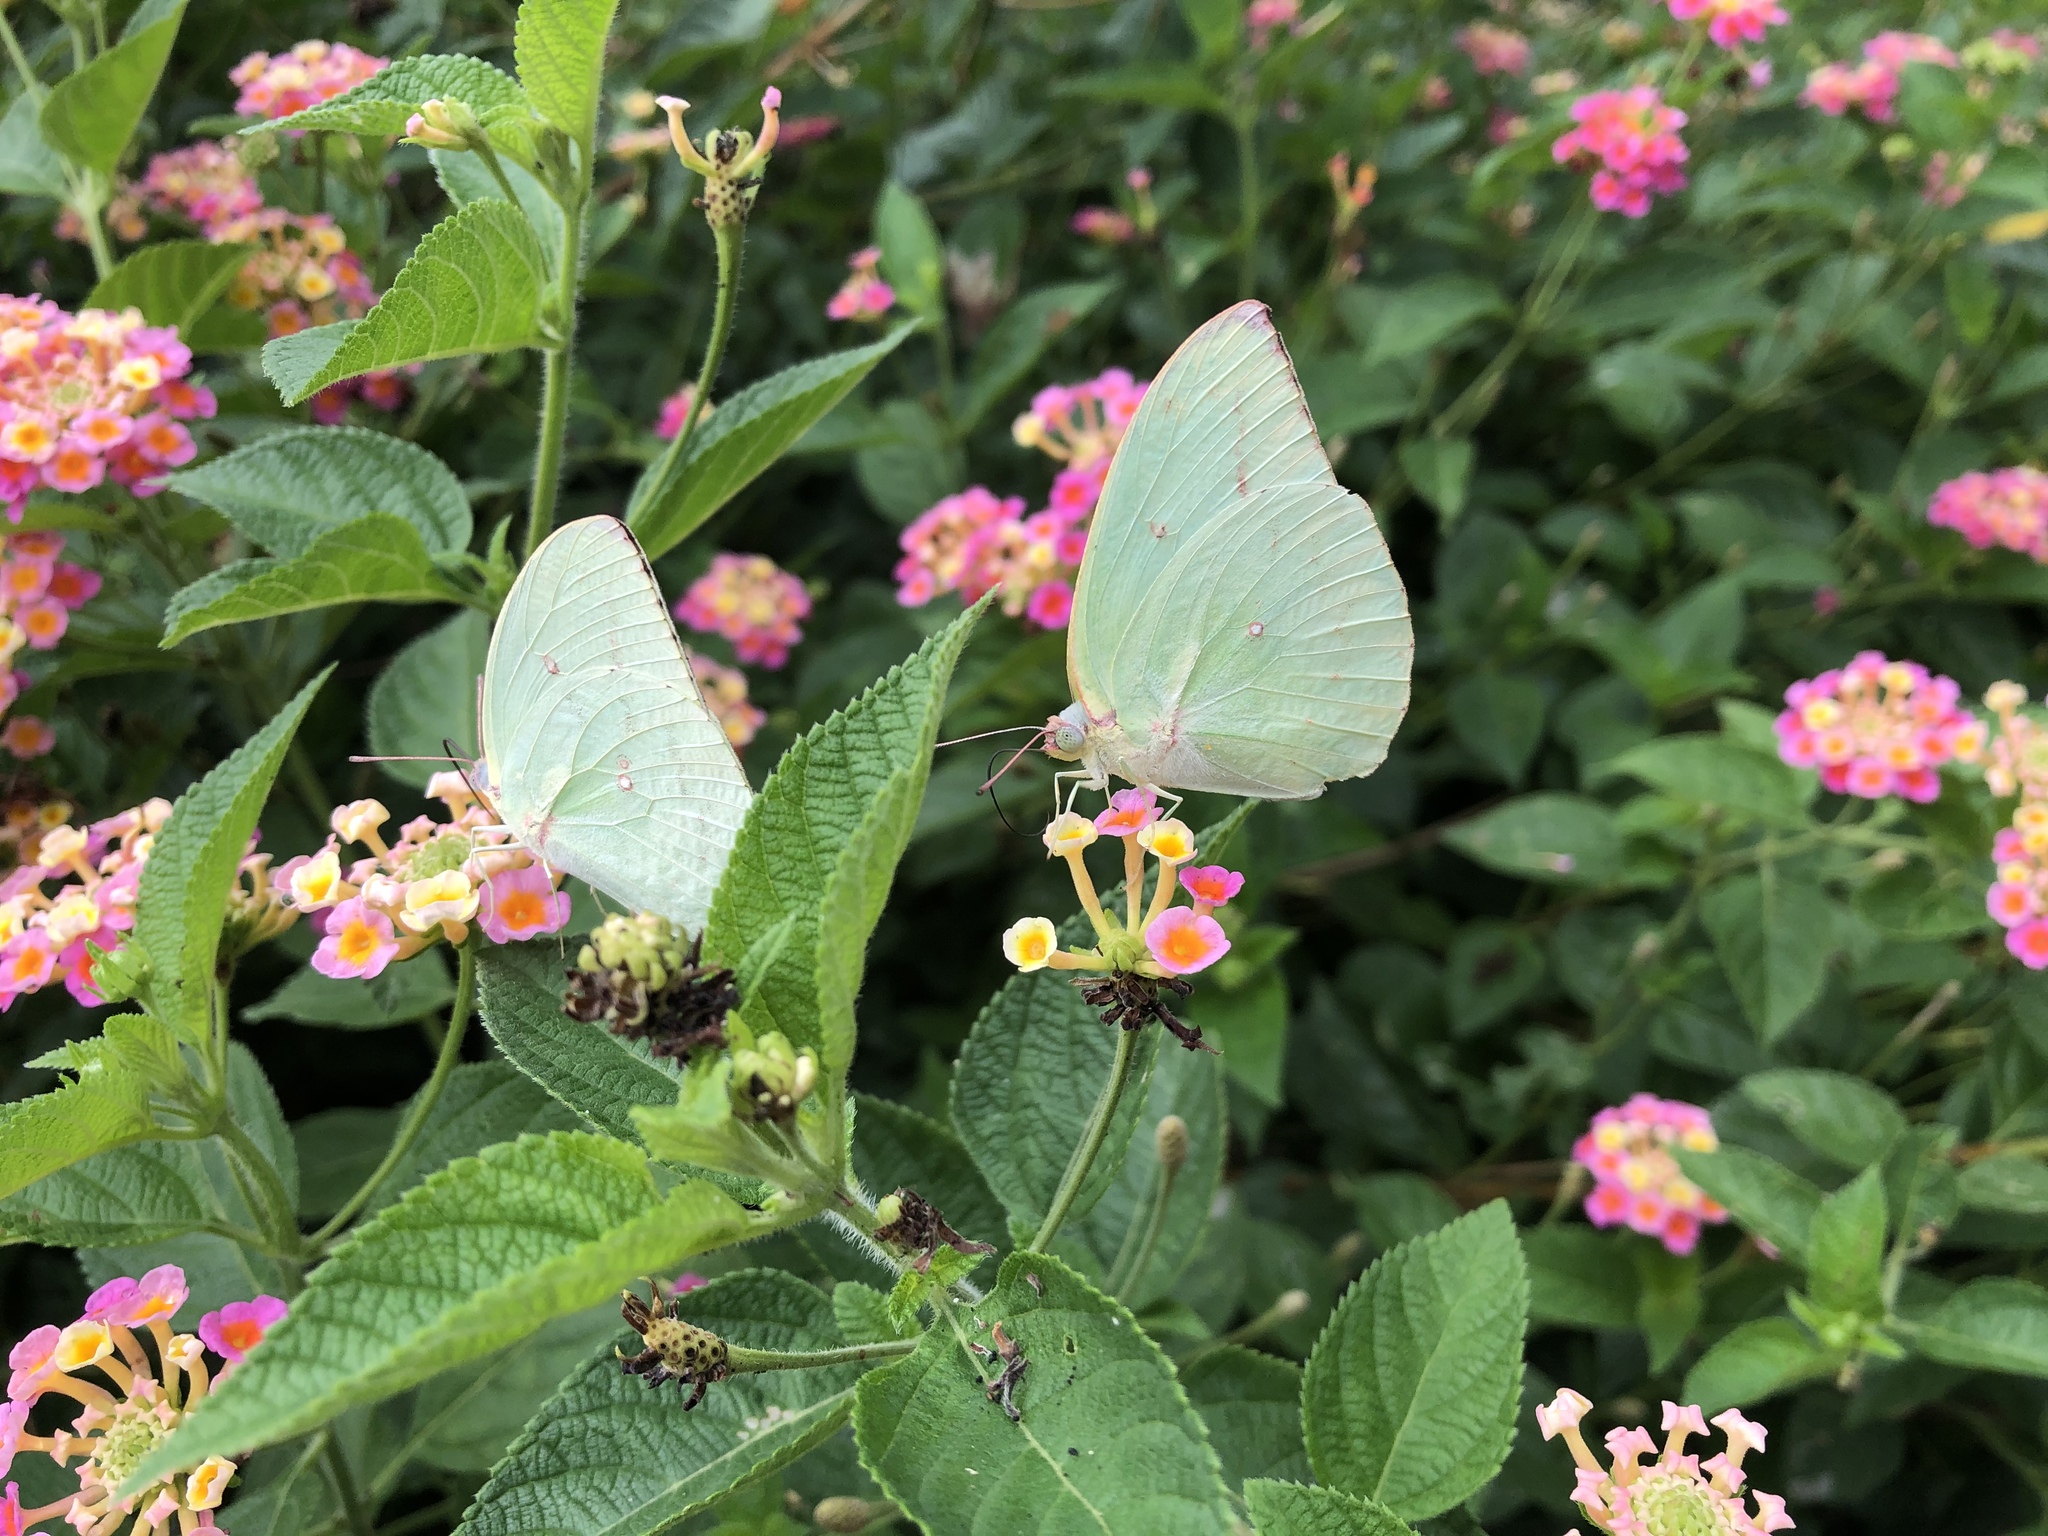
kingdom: Animalia
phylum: Arthropoda
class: Insecta
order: Lepidoptera
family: Pieridae
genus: Catopsilia
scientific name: Catopsilia pomona
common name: Common emigrant
